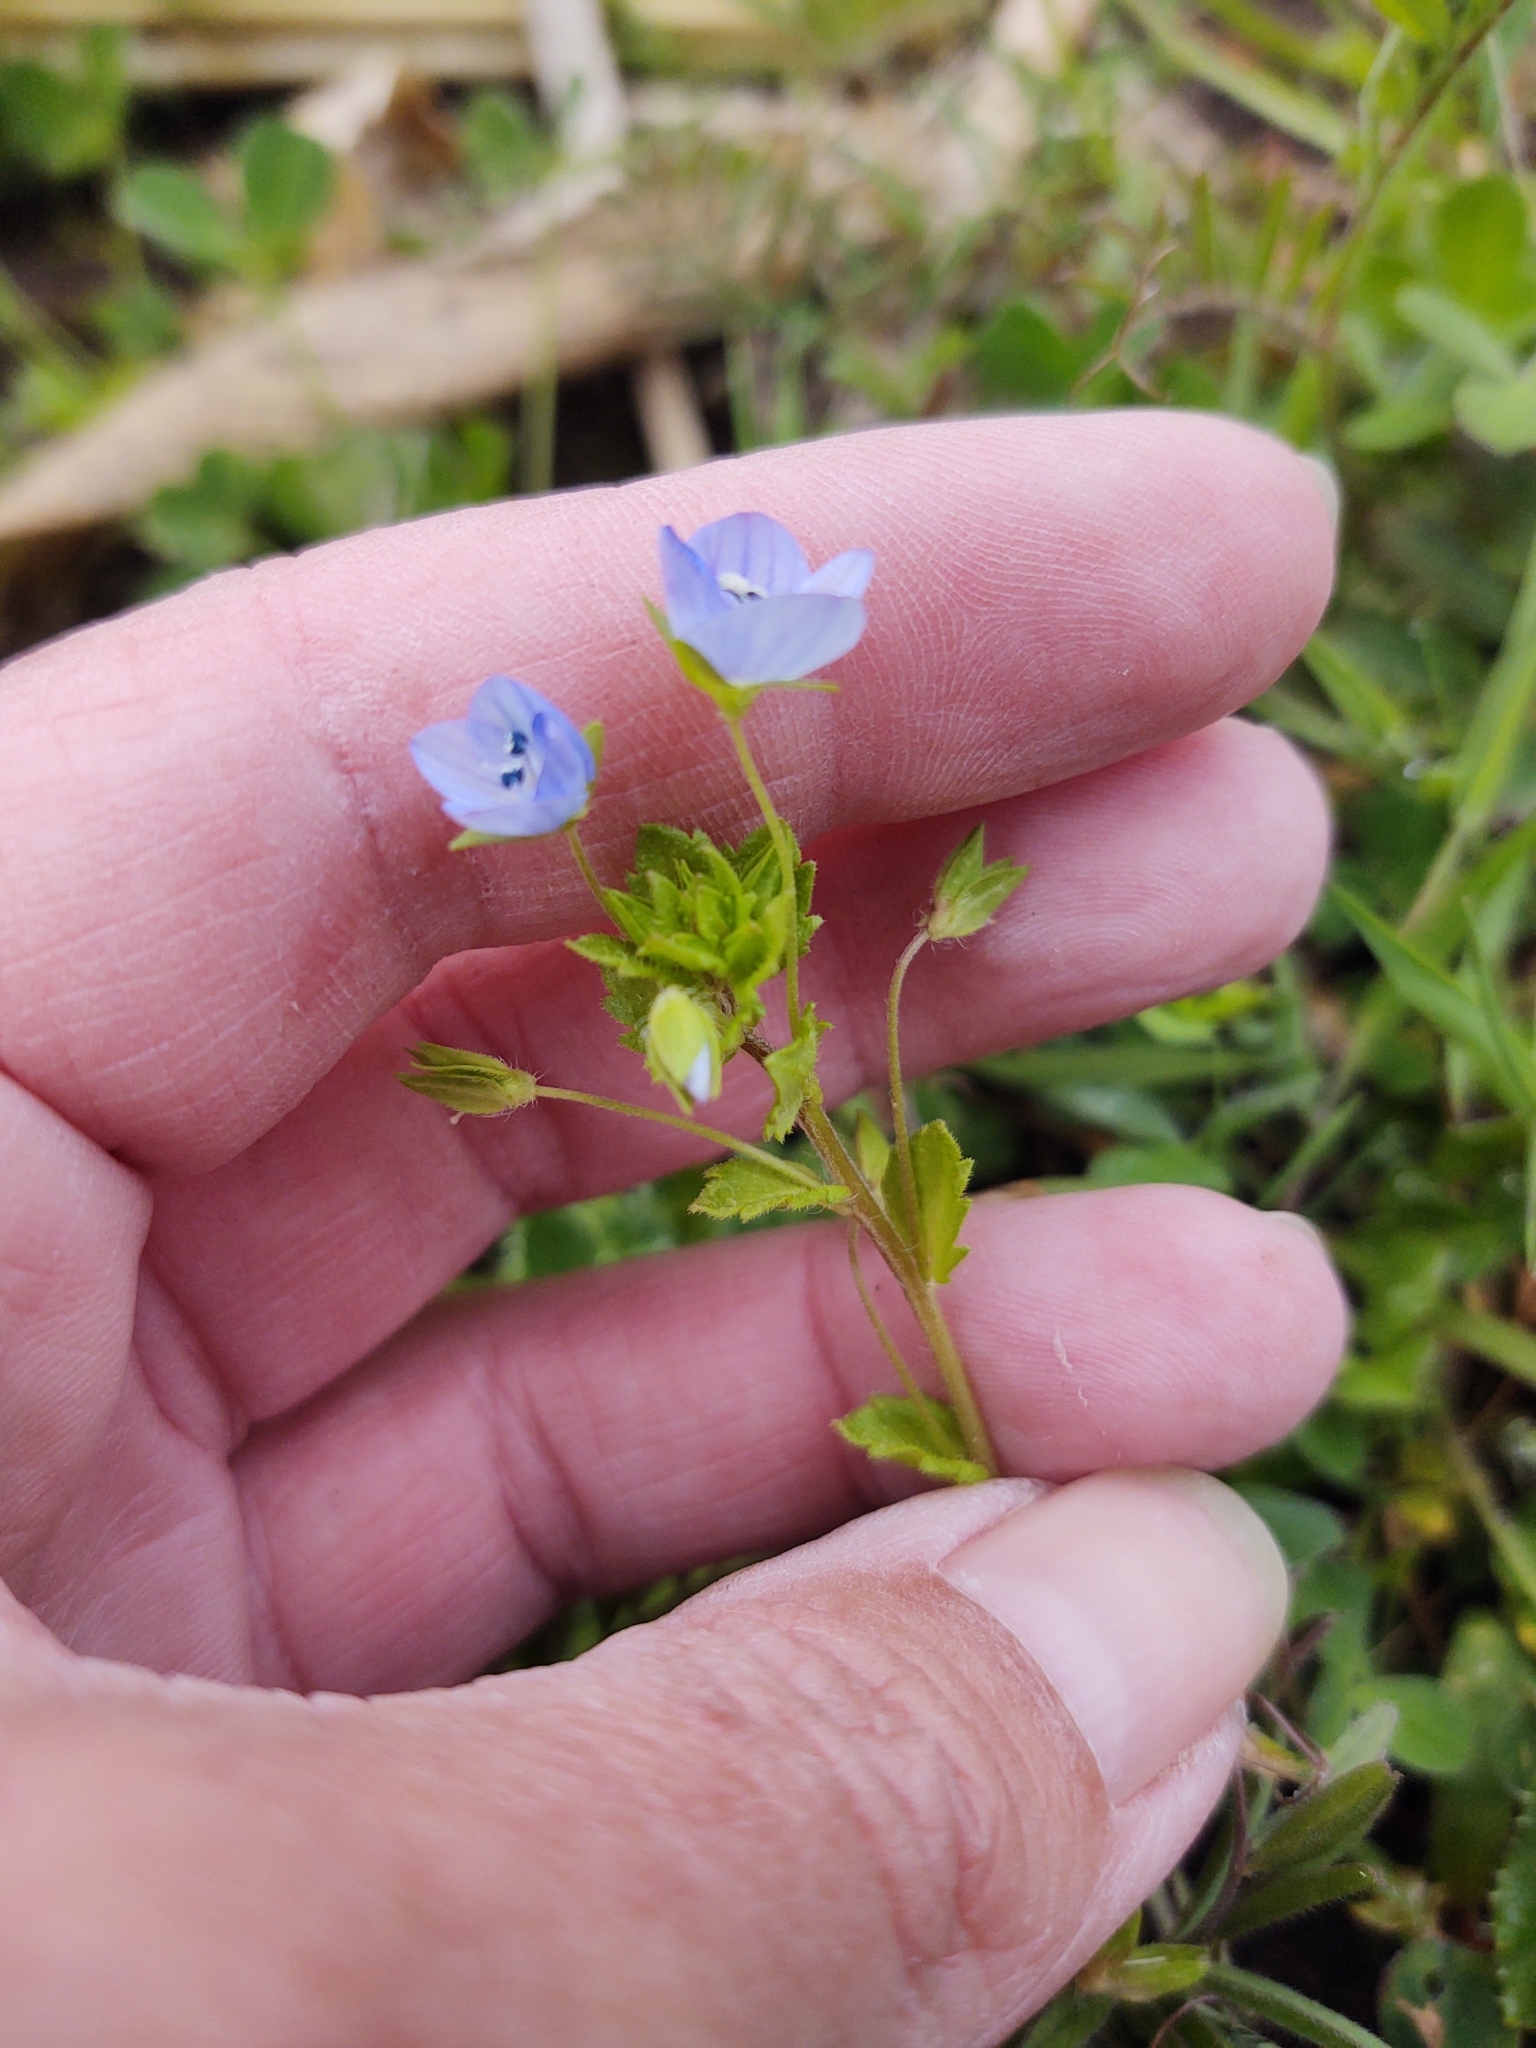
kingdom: Plantae
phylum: Tracheophyta
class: Magnoliopsida
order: Lamiales
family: Plantaginaceae
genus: Veronica
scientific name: Veronica persica
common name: Common field-speedwell
